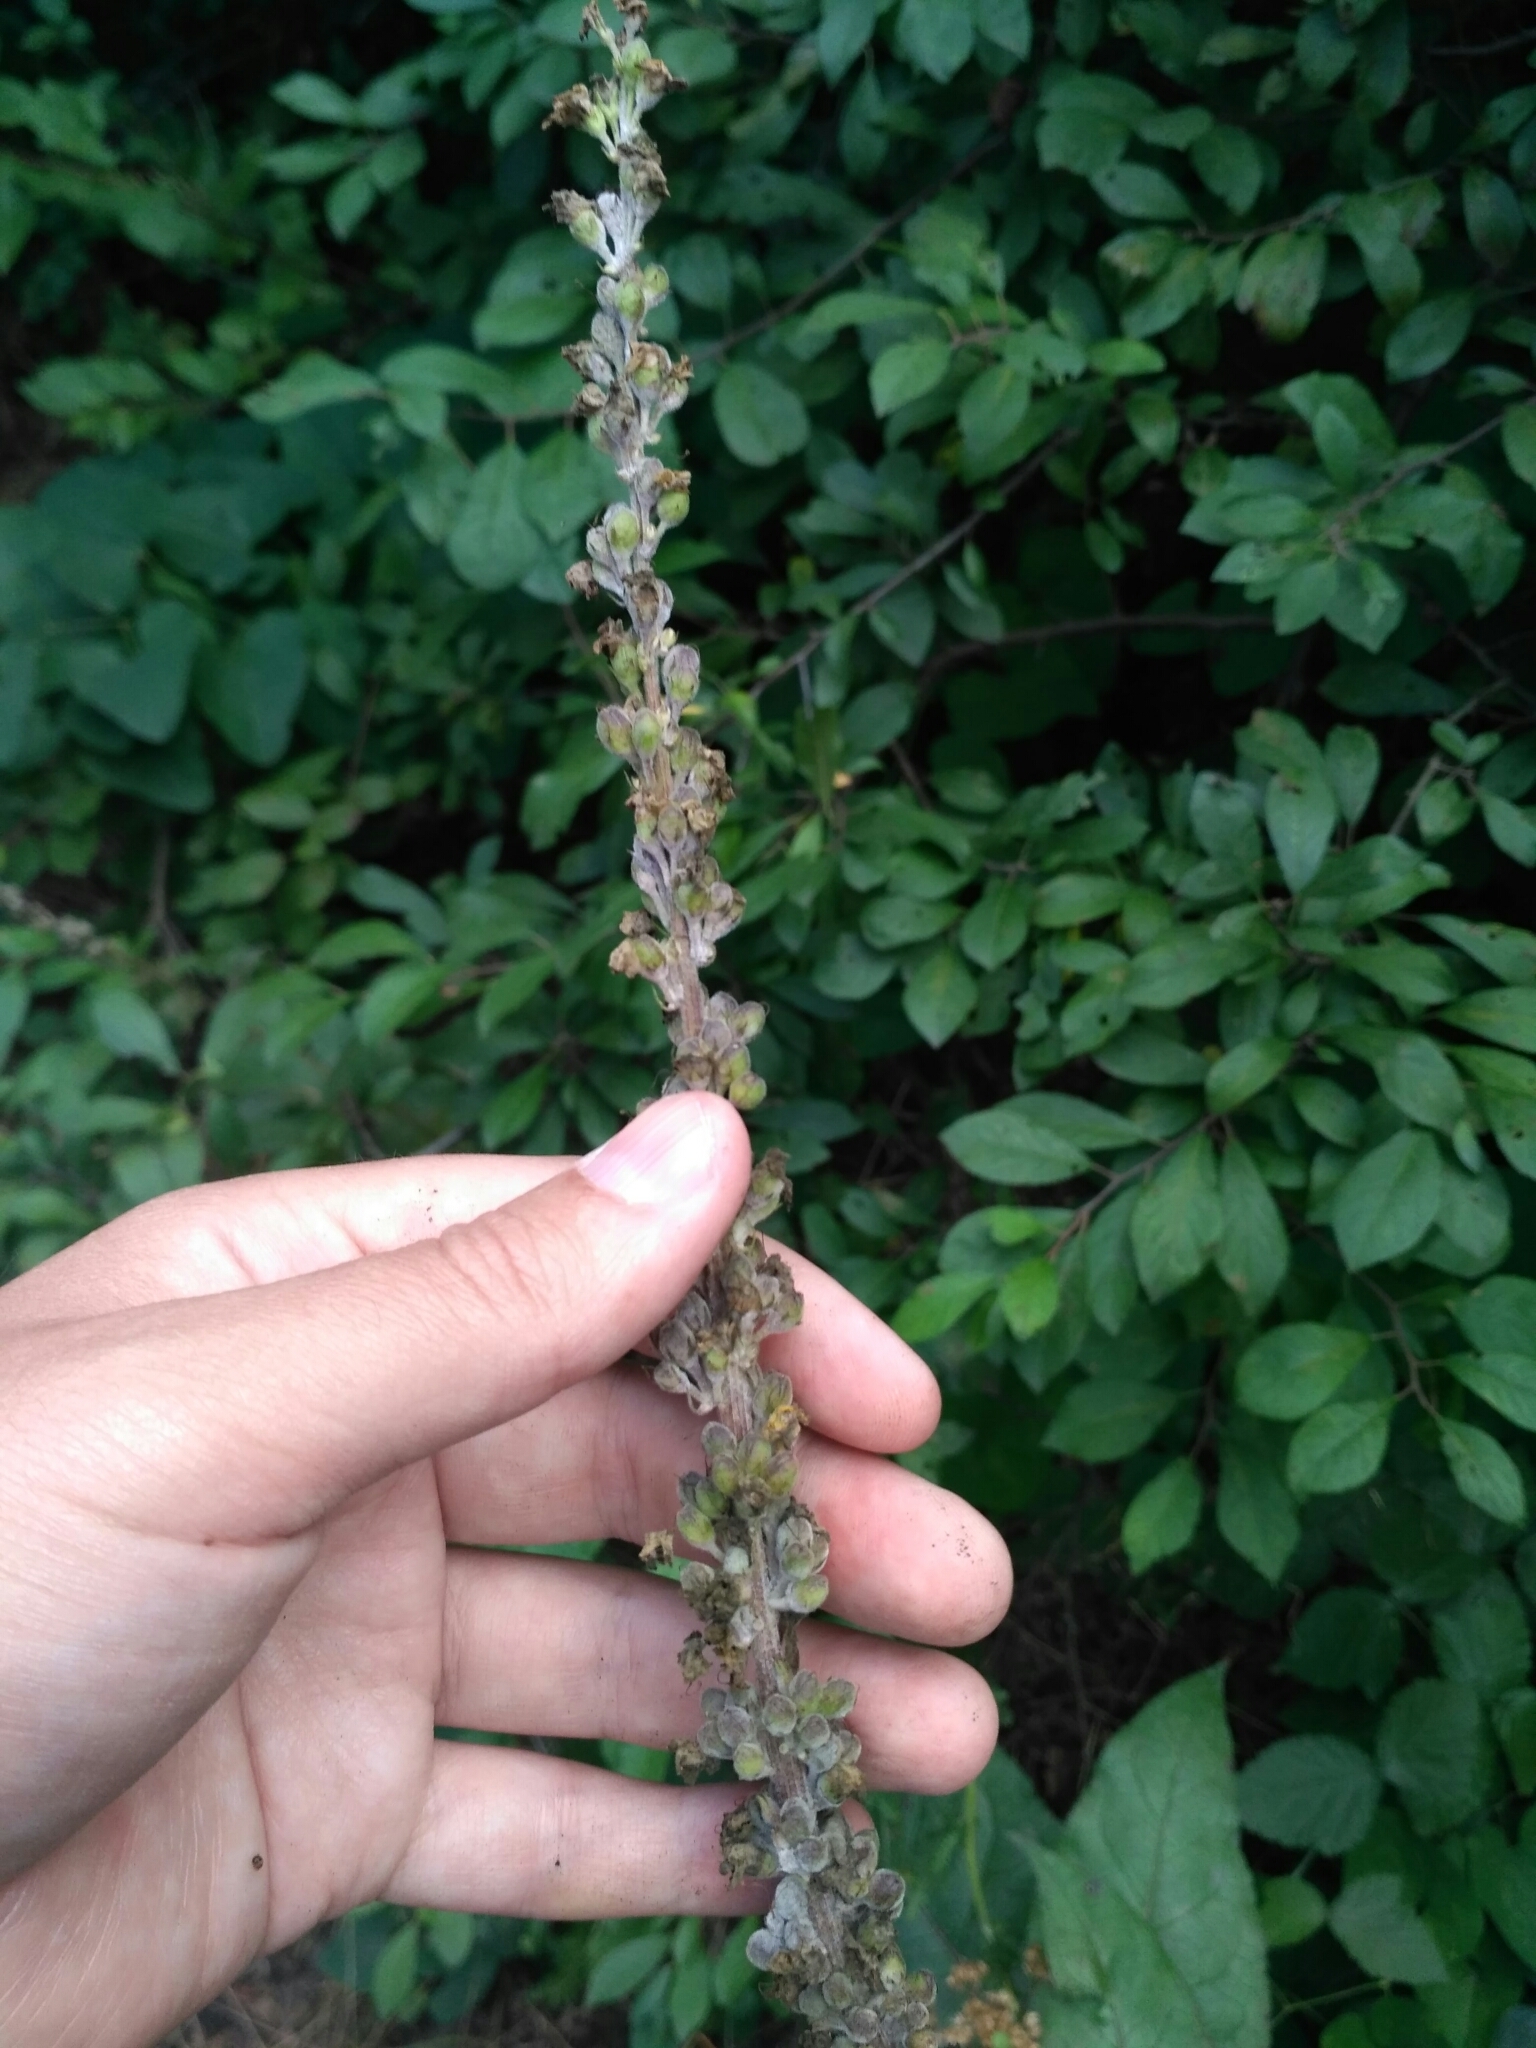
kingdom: Plantae
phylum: Tracheophyta
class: Magnoliopsida
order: Lamiales
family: Scrophulariaceae
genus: Verbascum
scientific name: Verbascum nigrum
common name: Dark mullein
